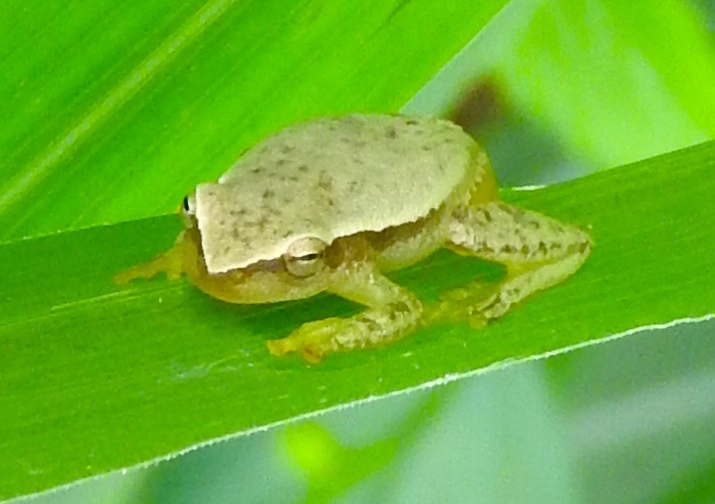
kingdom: Animalia
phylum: Chordata
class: Amphibia
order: Anura
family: Hylidae
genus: Tlalocohyla
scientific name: Tlalocohyla smithii
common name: Dwarf mexican treefrog
